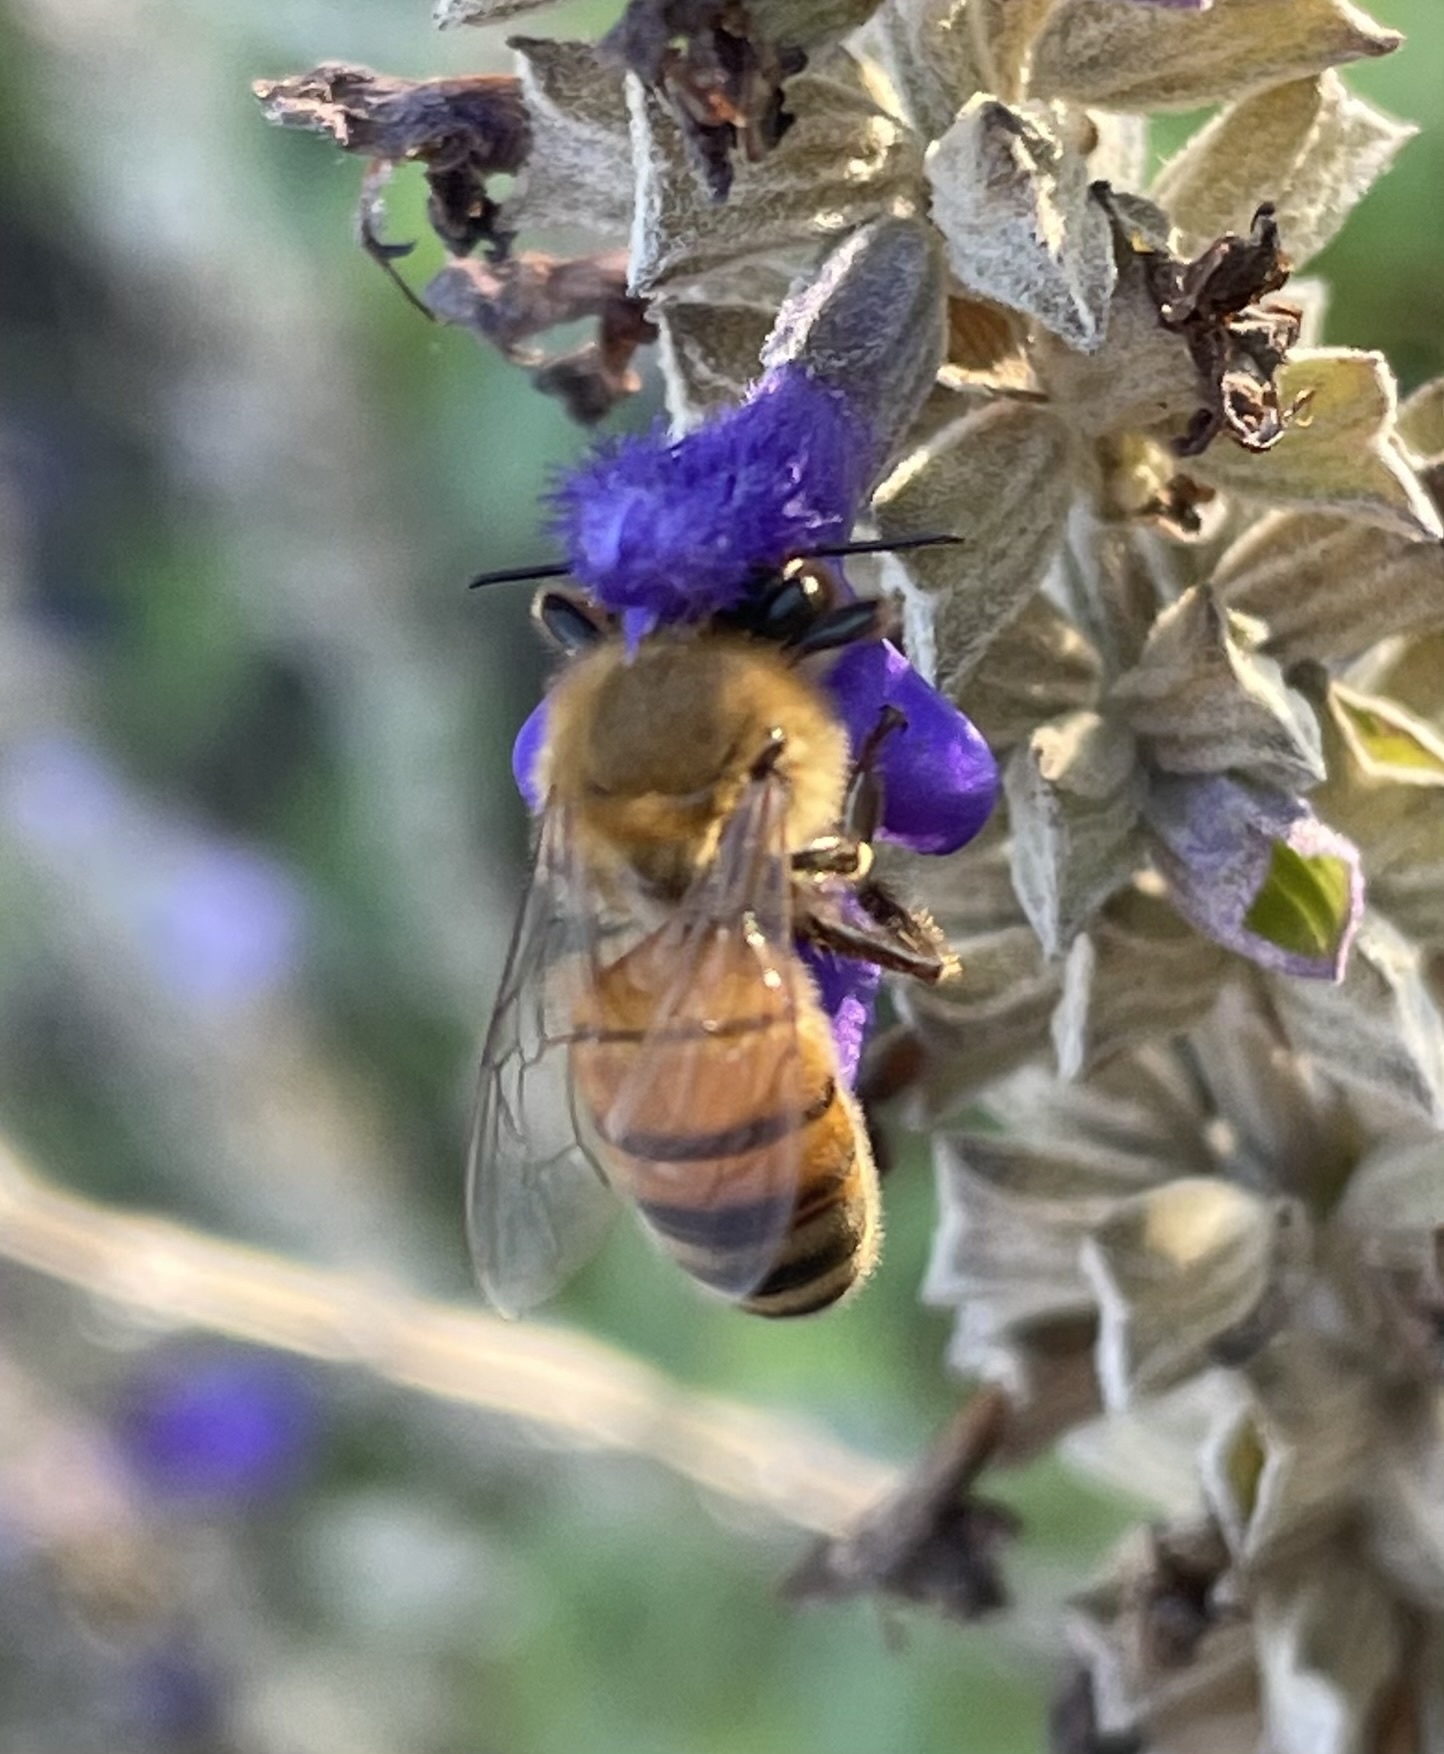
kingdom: Animalia
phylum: Arthropoda
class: Insecta
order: Hymenoptera
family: Apidae
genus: Apis
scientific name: Apis mellifera
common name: Honey bee
